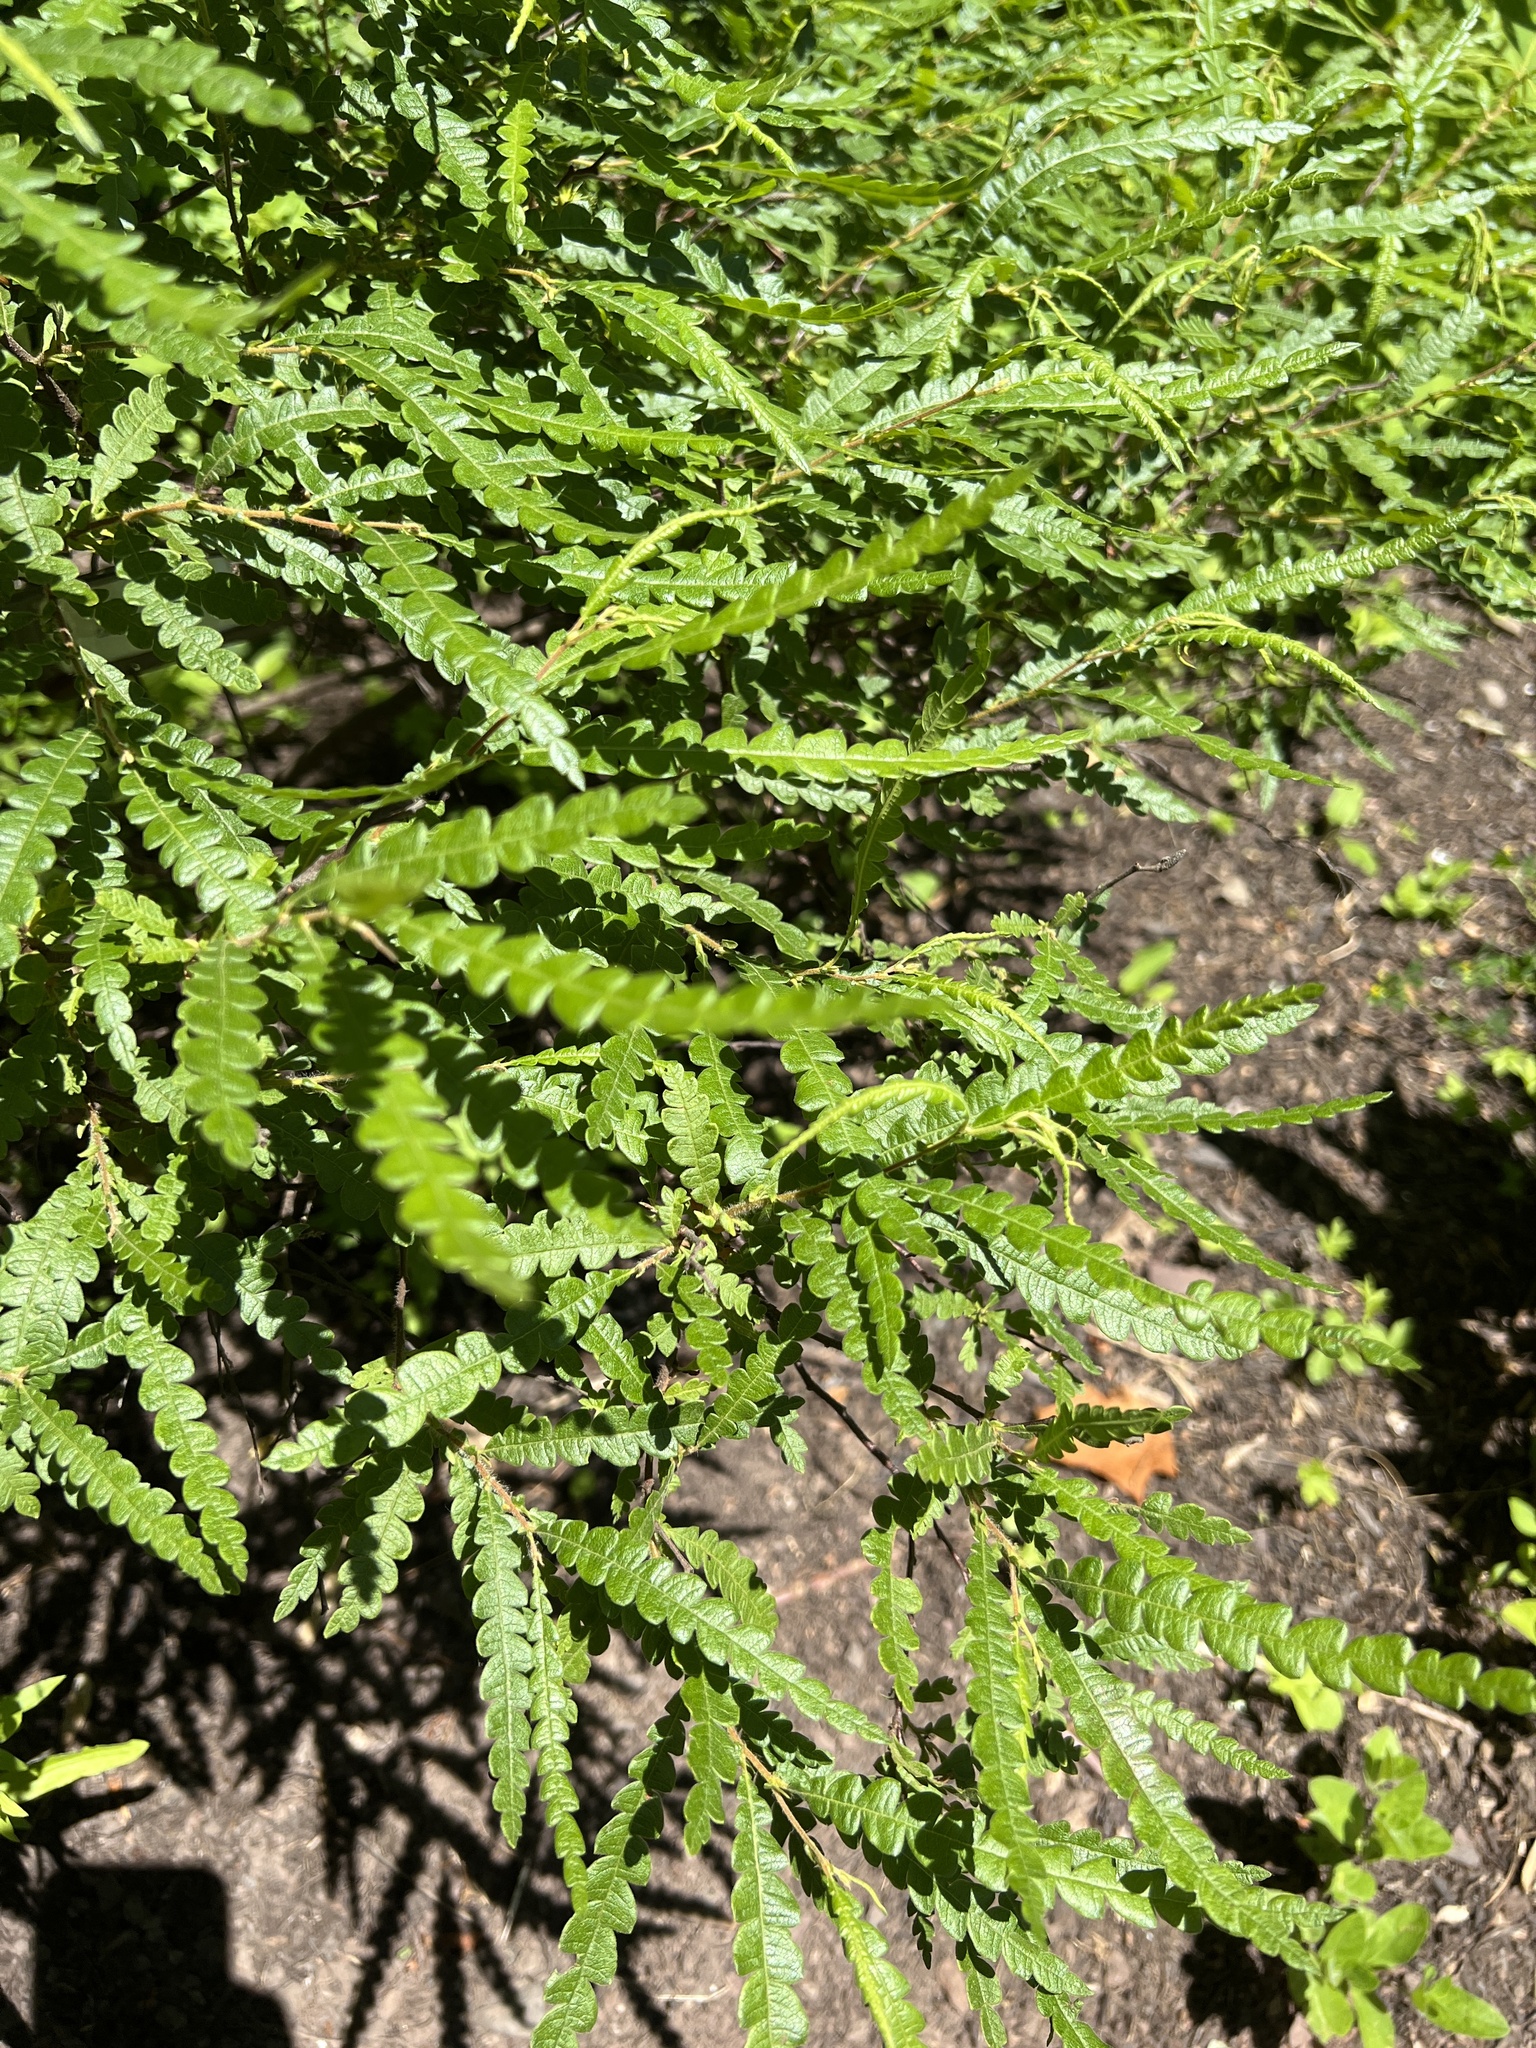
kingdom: Plantae
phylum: Tracheophyta
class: Magnoliopsida
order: Fagales
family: Myricaceae
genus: Comptonia
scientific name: Comptonia peregrina
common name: Sweet-fern
